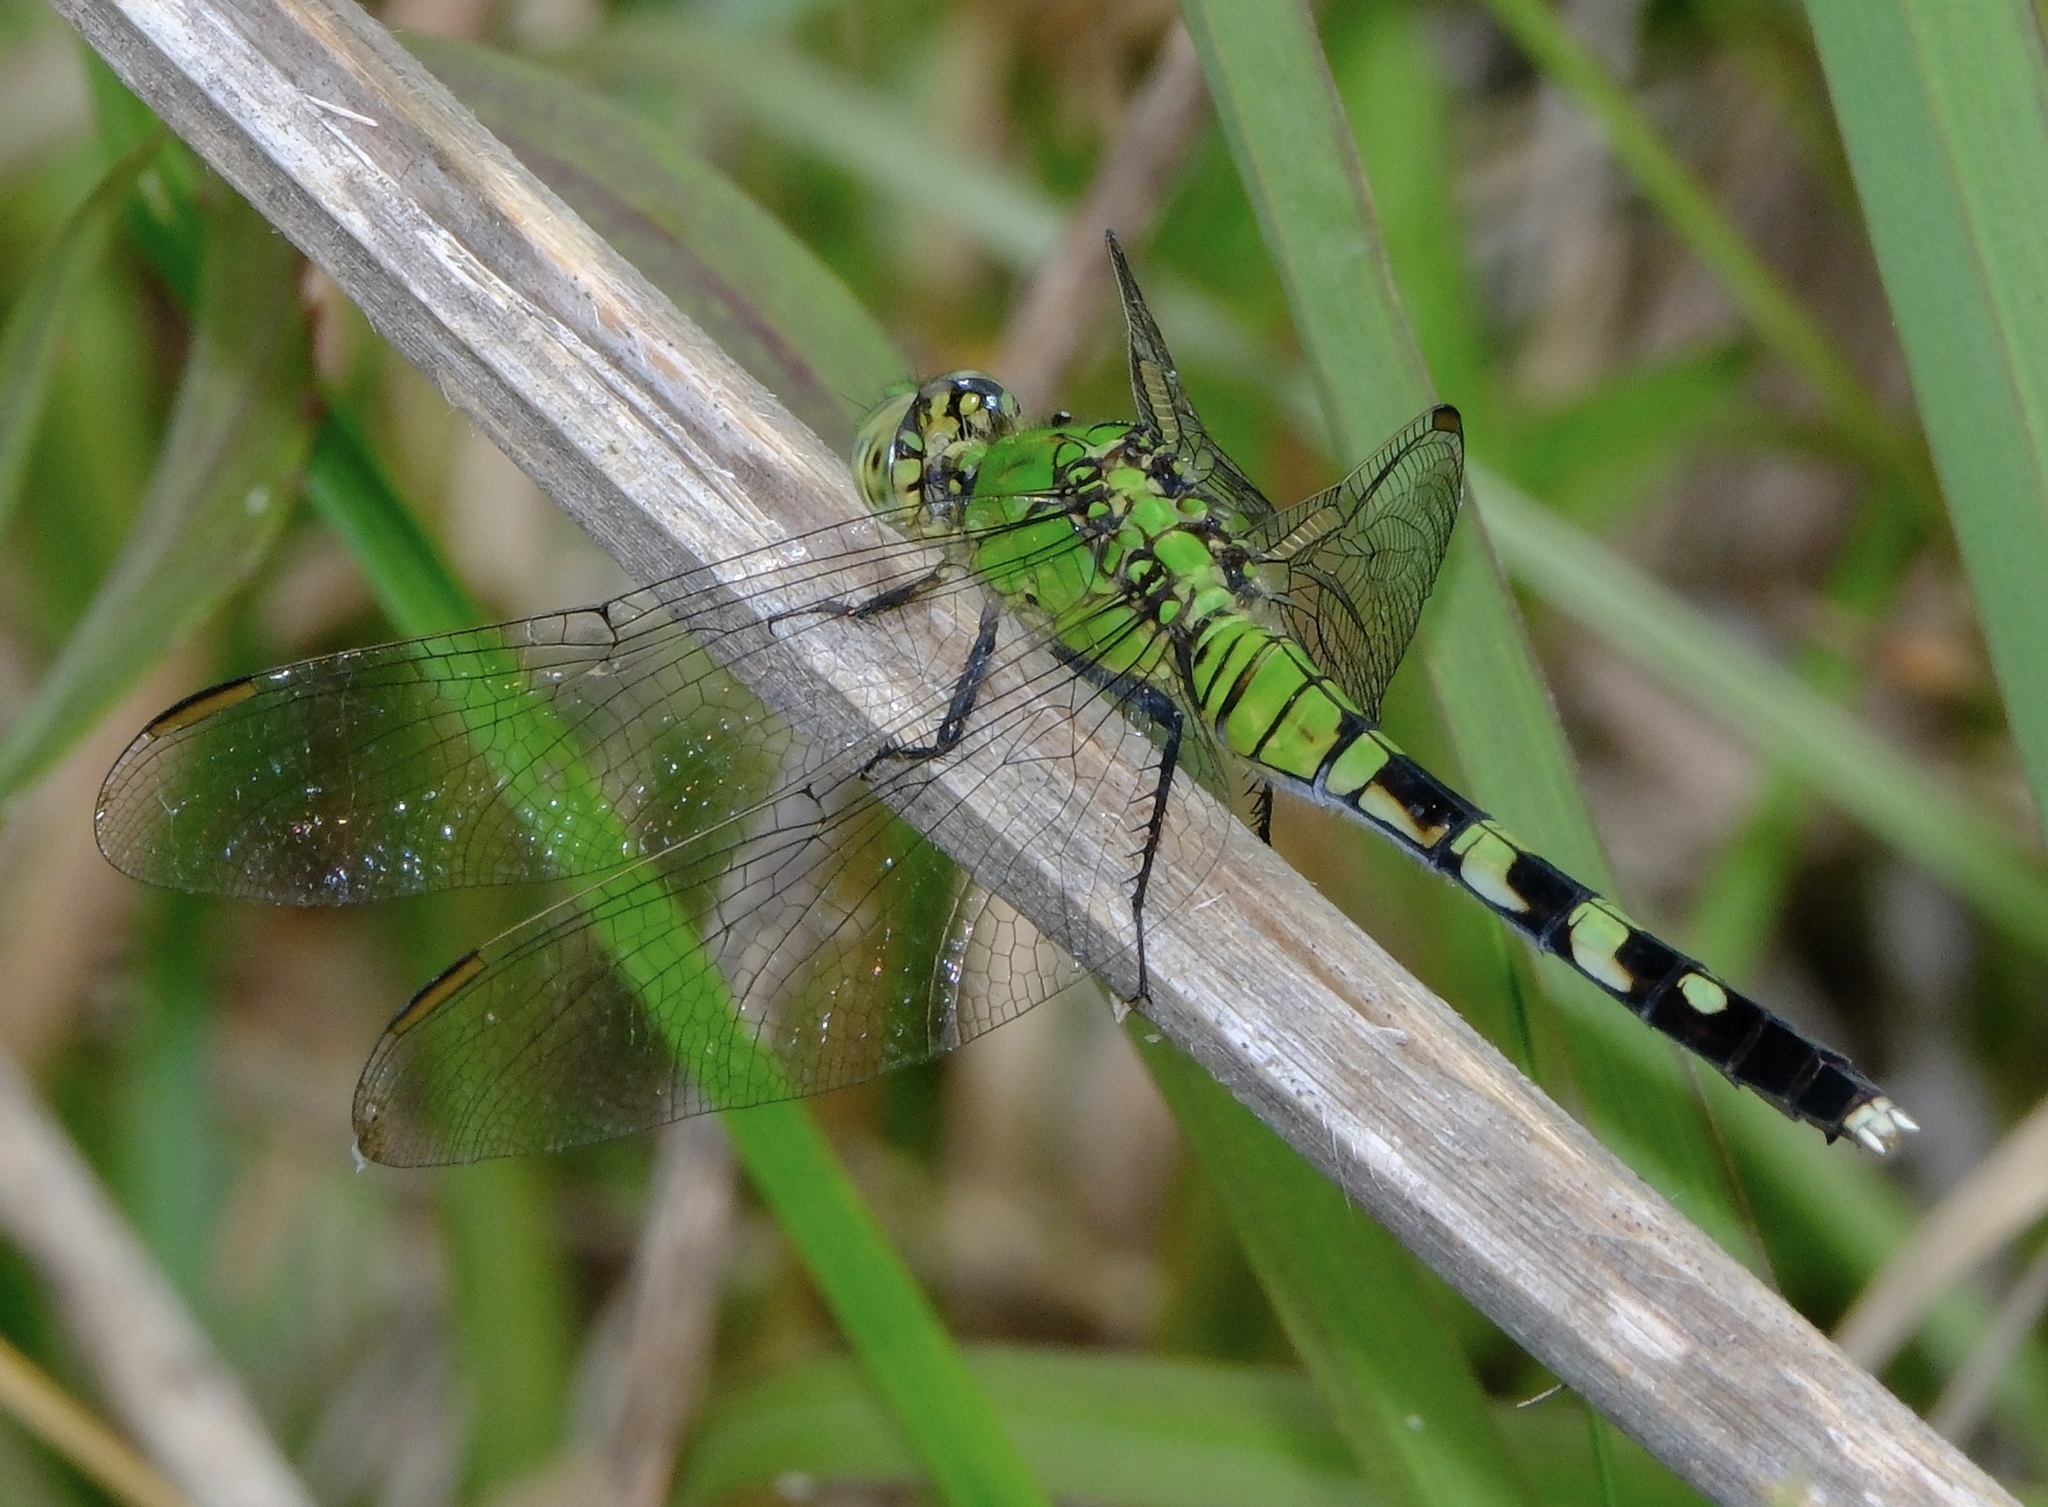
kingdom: Animalia
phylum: Arthropoda
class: Insecta
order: Odonata
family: Libellulidae
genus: Erythemis
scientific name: Erythemis simplicicollis
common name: Eastern pondhawk
